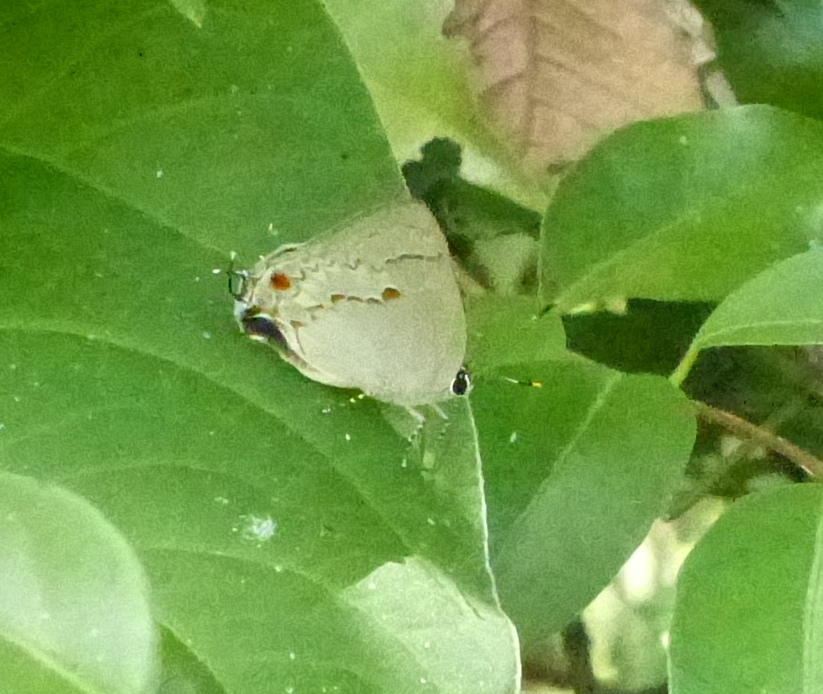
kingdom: Animalia
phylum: Arthropoda
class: Insecta
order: Lepidoptera
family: Lycaenidae
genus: Thecla
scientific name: Thecla philinna
